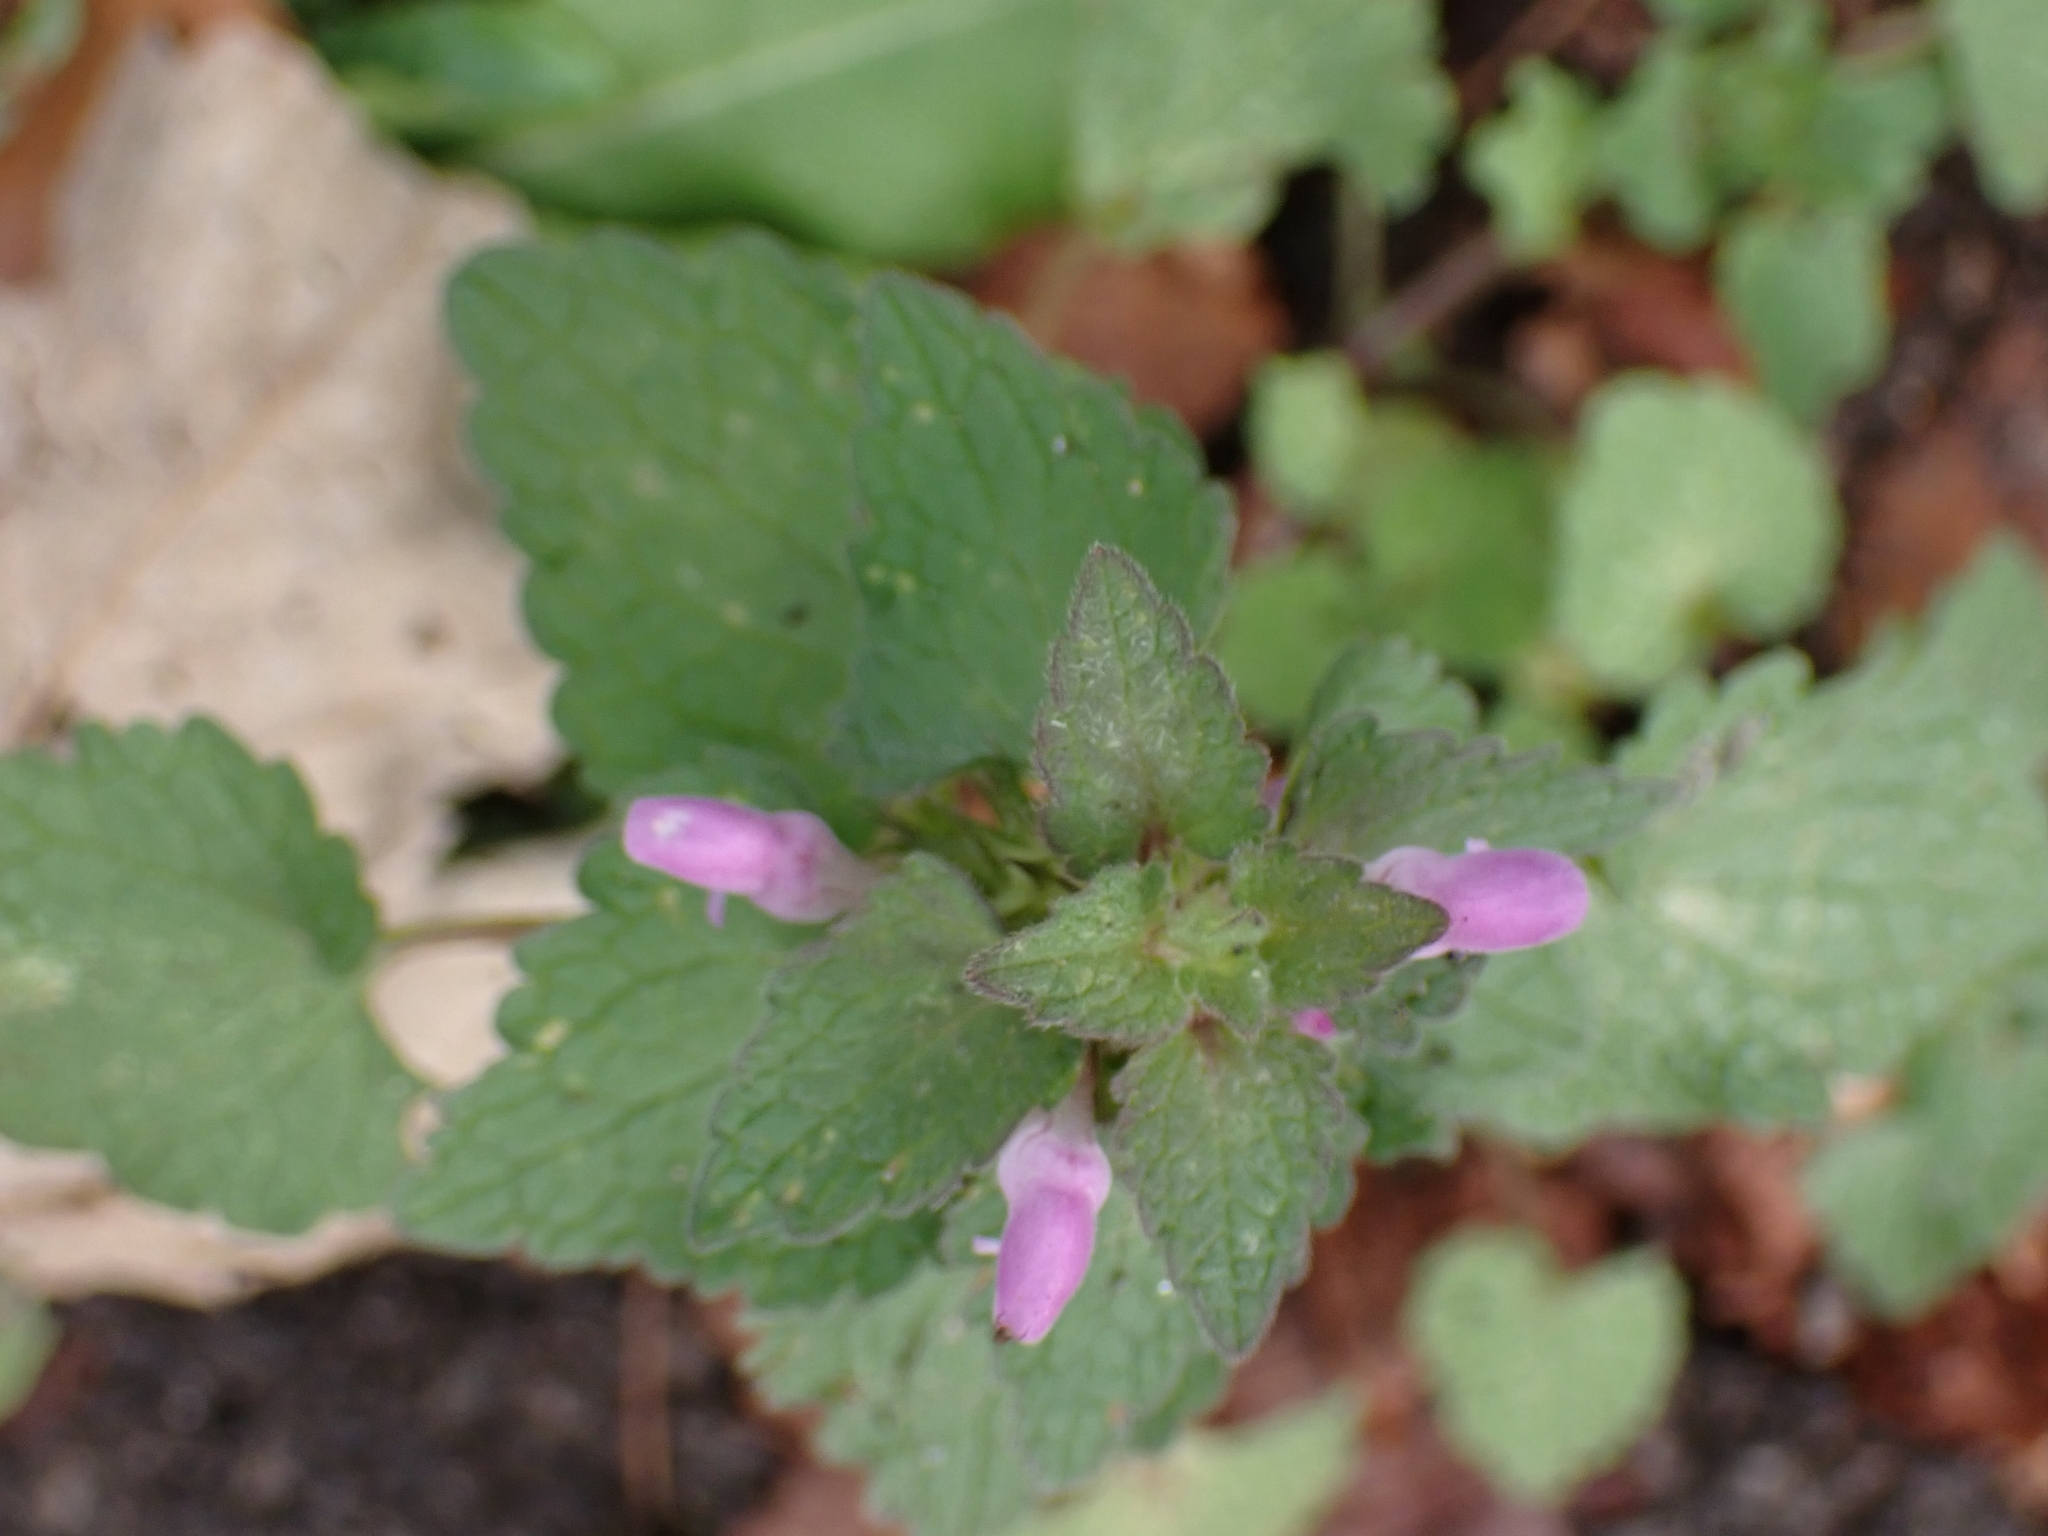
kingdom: Plantae
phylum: Tracheophyta
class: Magnoliopsida
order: Lamiales
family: Lamiaceae
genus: Lamium
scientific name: Lamium purpureum
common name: Red dead-nettle
